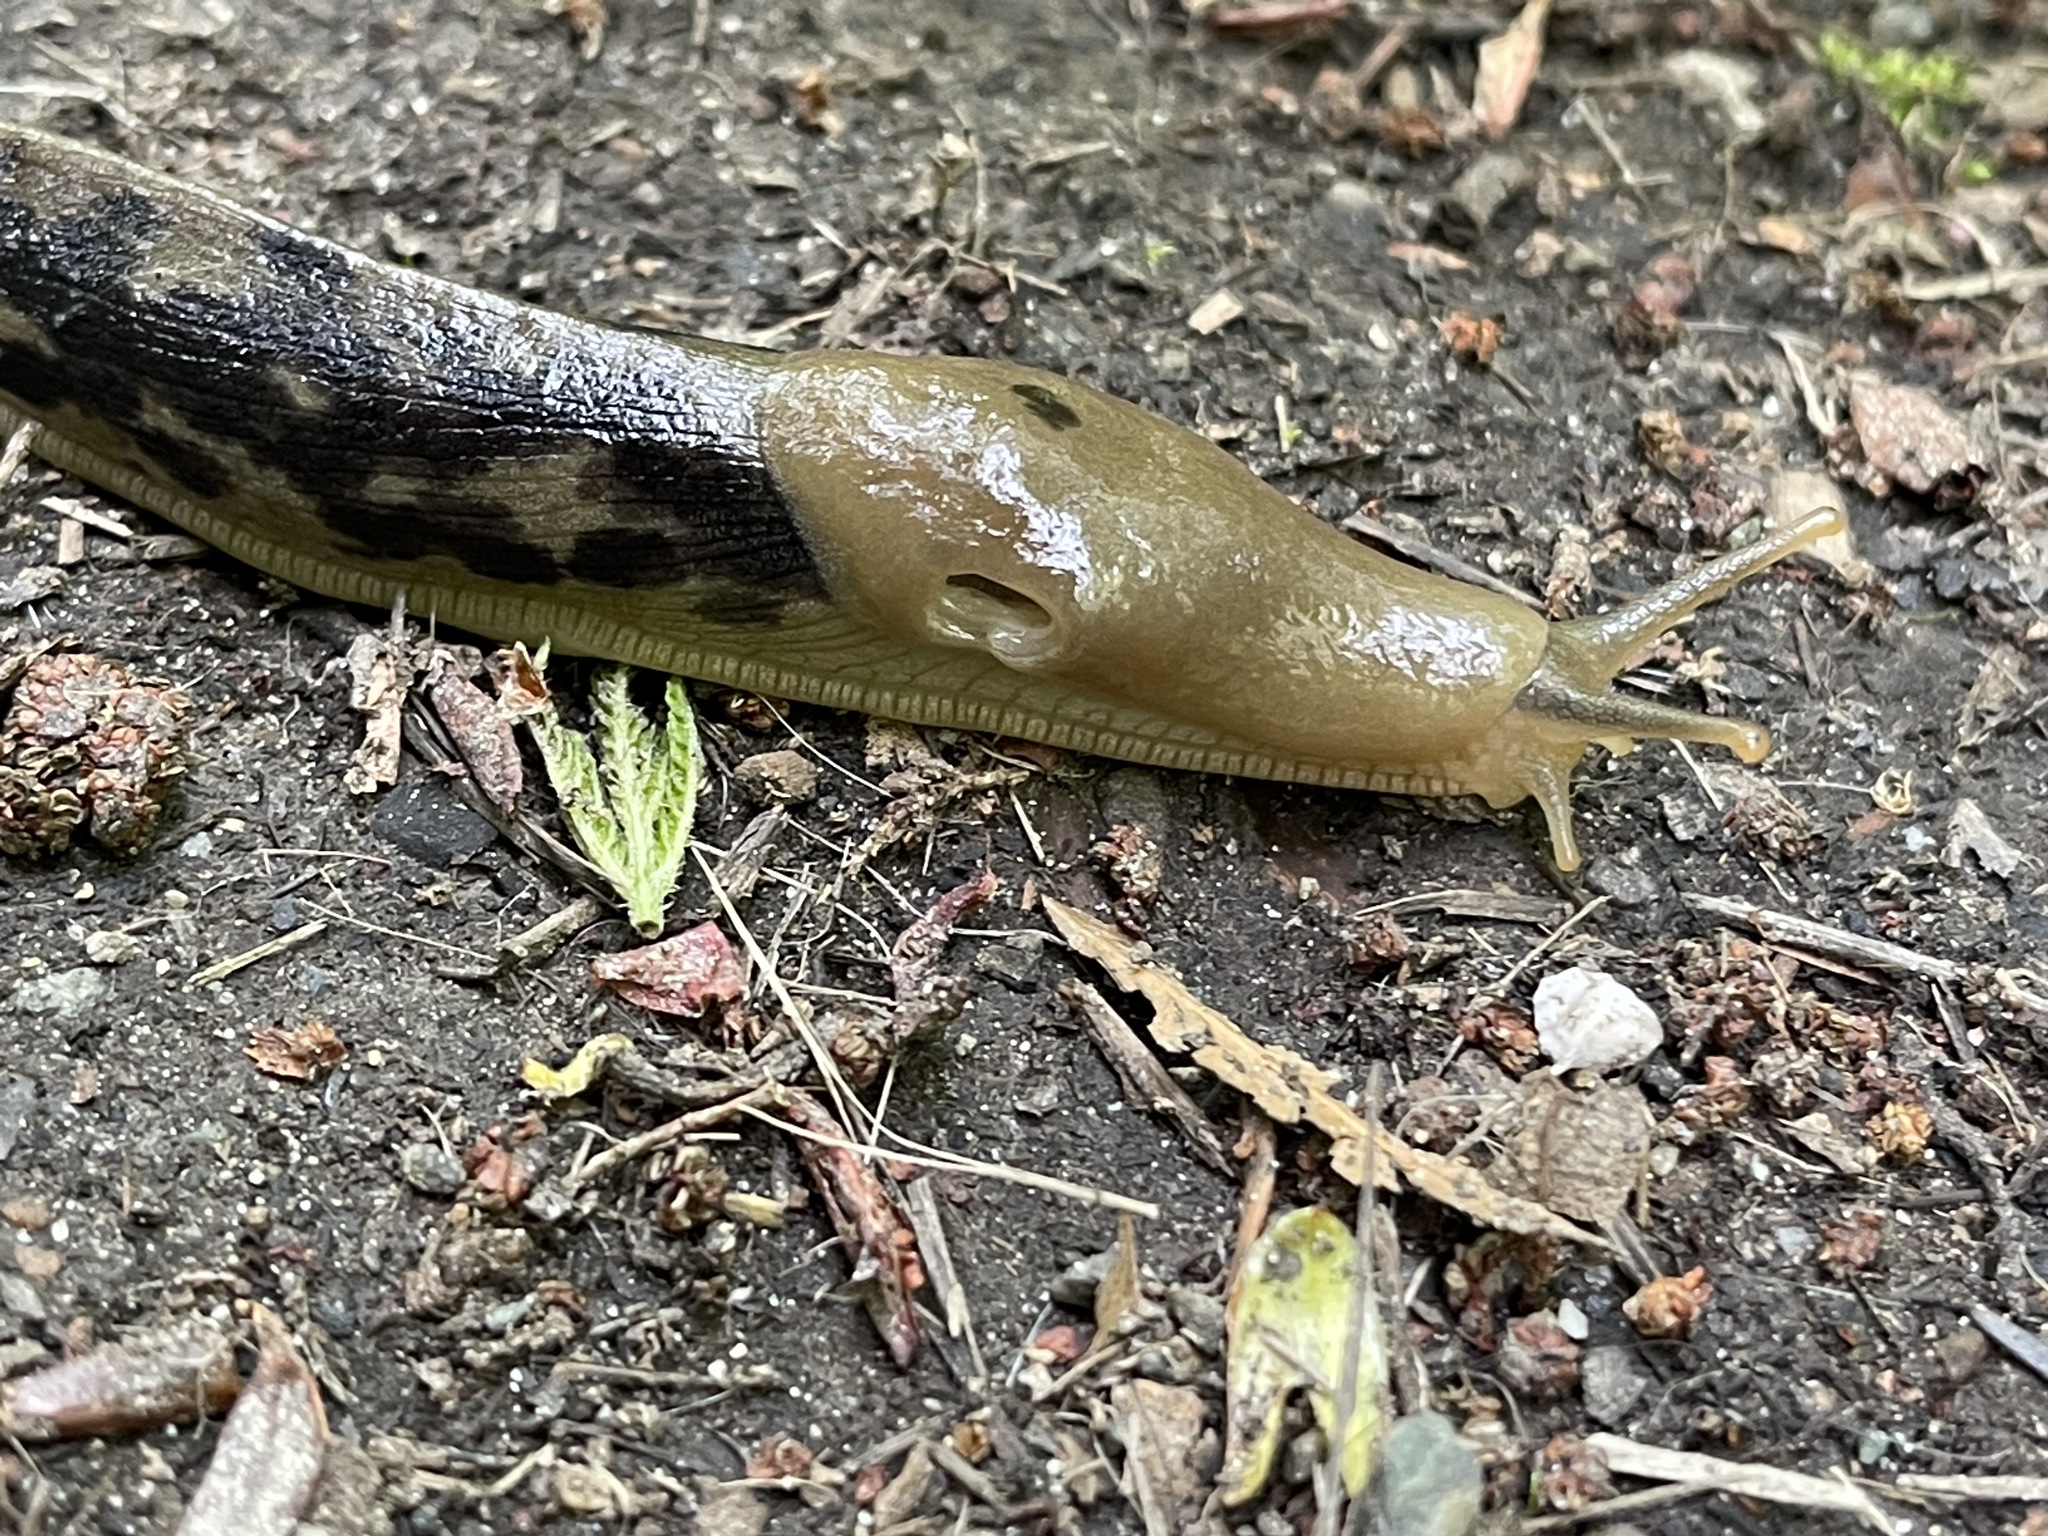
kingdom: Animalia
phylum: Mollusca
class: Gastropoda
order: Stylommatophora
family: Ariolimacidae
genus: Ariolimax
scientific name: Ariolimax columbianus
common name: Pacific banana slug
